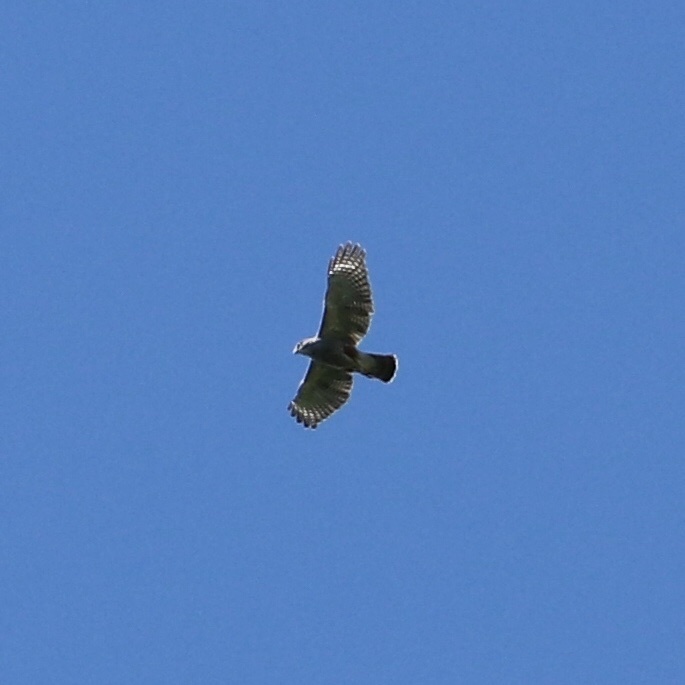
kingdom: Animalia
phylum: Chordata
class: Aves
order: Accipitriformes
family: Accipitridae
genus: Buteo
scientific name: Buteo ridgwayi
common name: Ridgway's hawk
